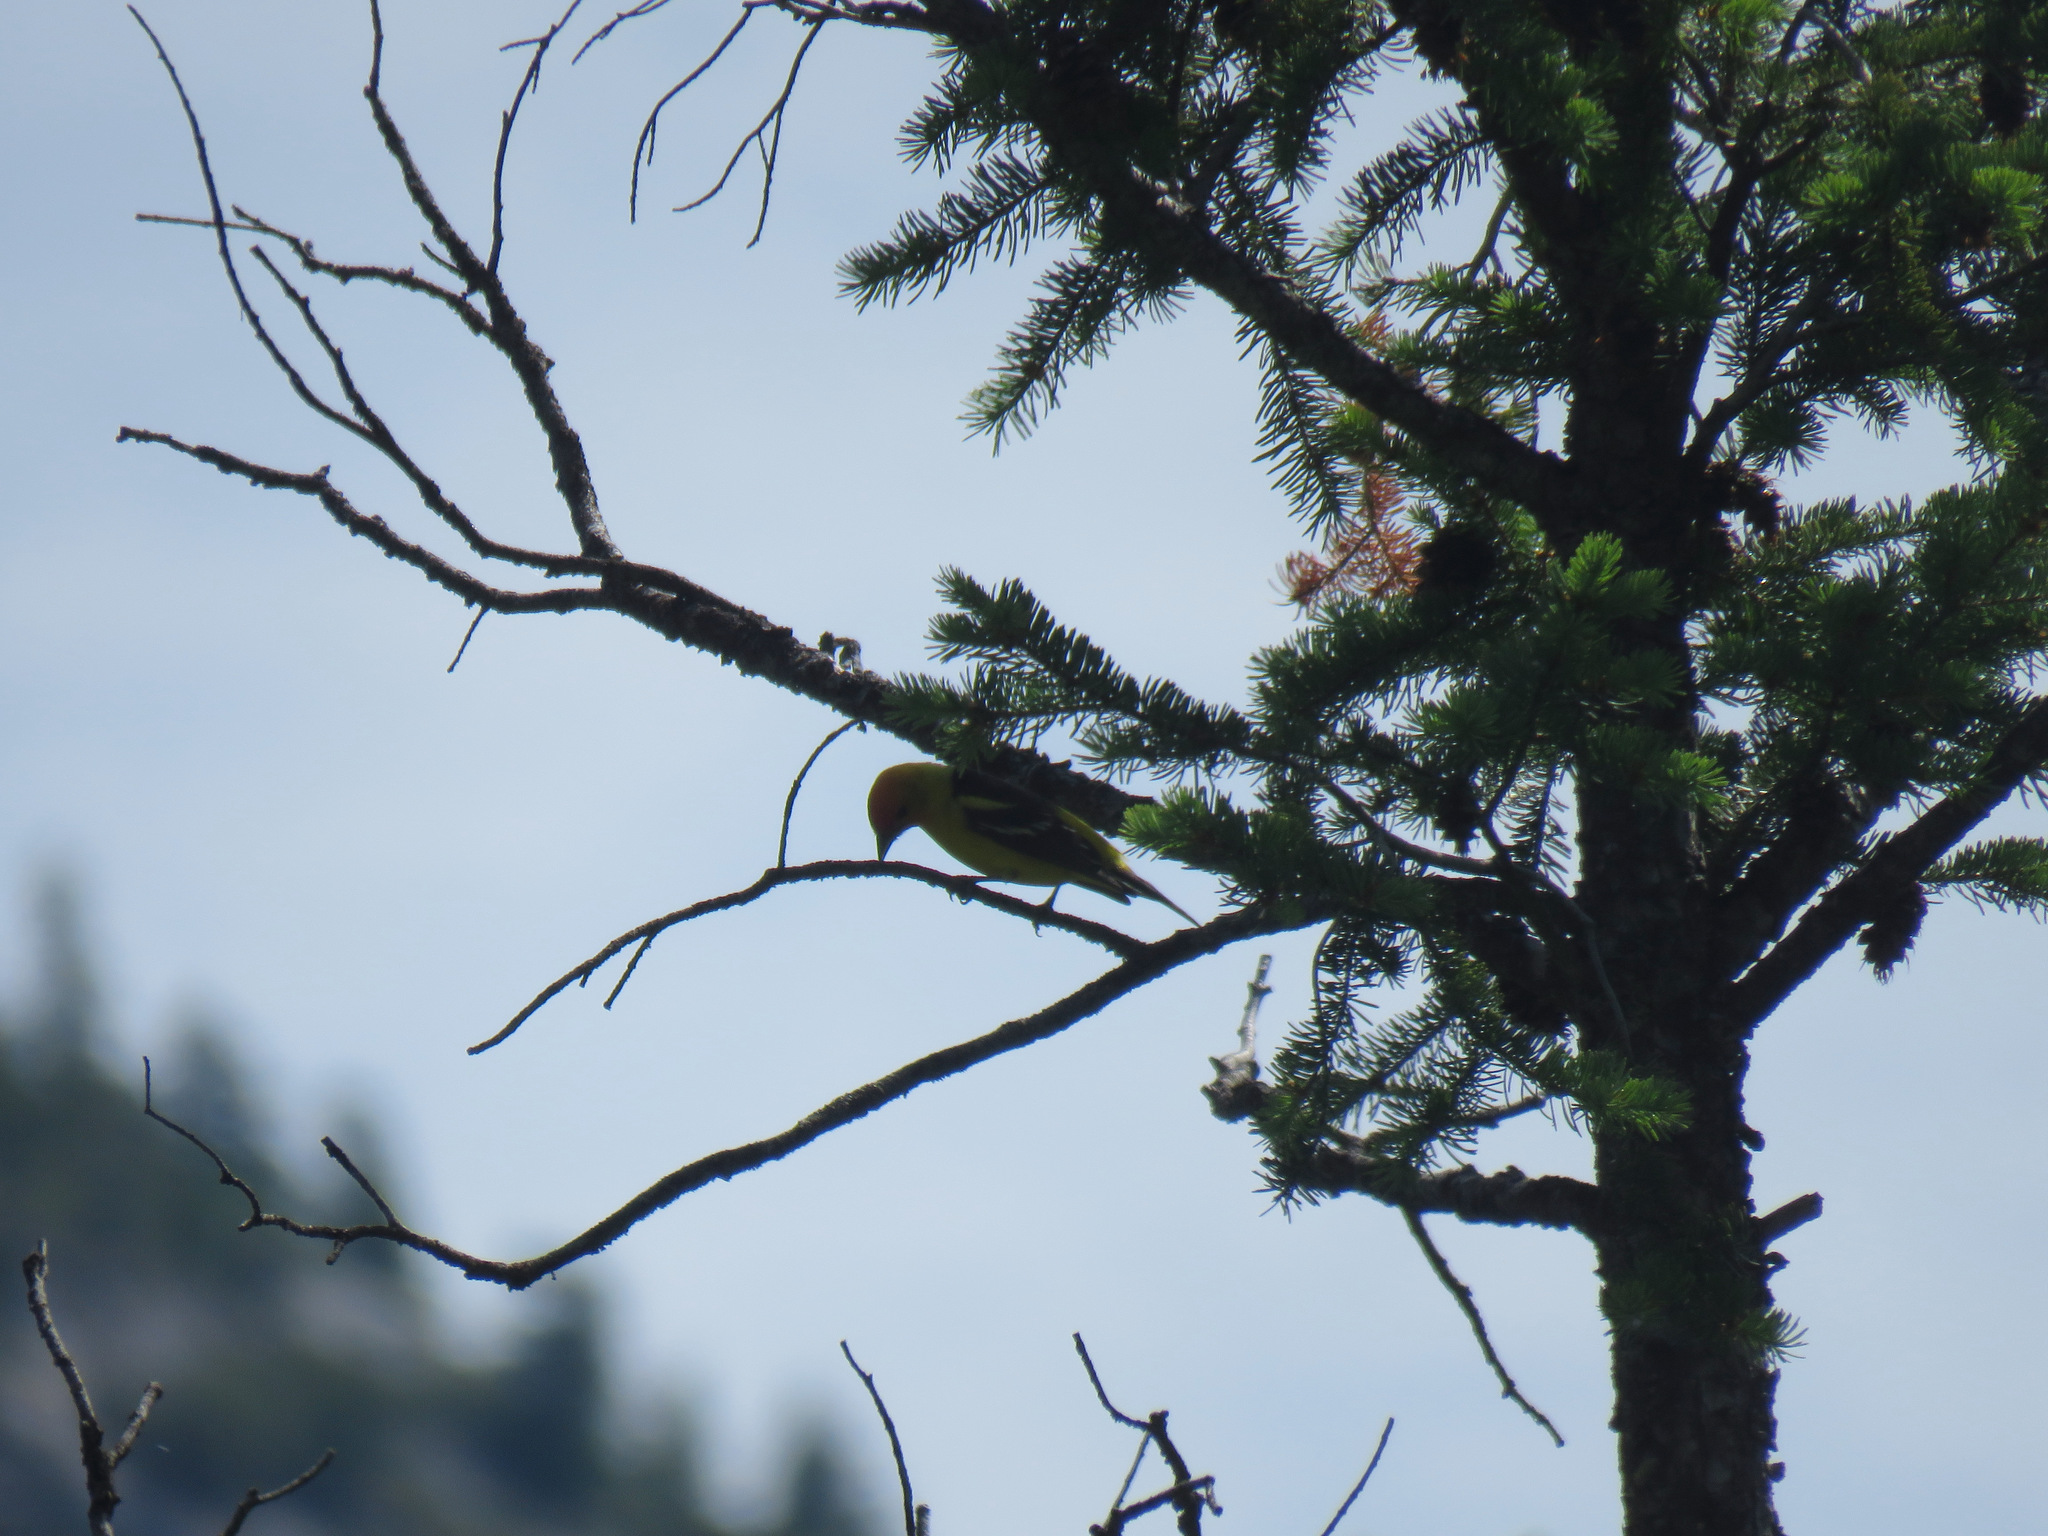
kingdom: Animalia
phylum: Chordata
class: Aves
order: Passeriformes
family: Cardinalidae
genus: Piranga
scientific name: Piranga ludoviciana
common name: Western tanager
